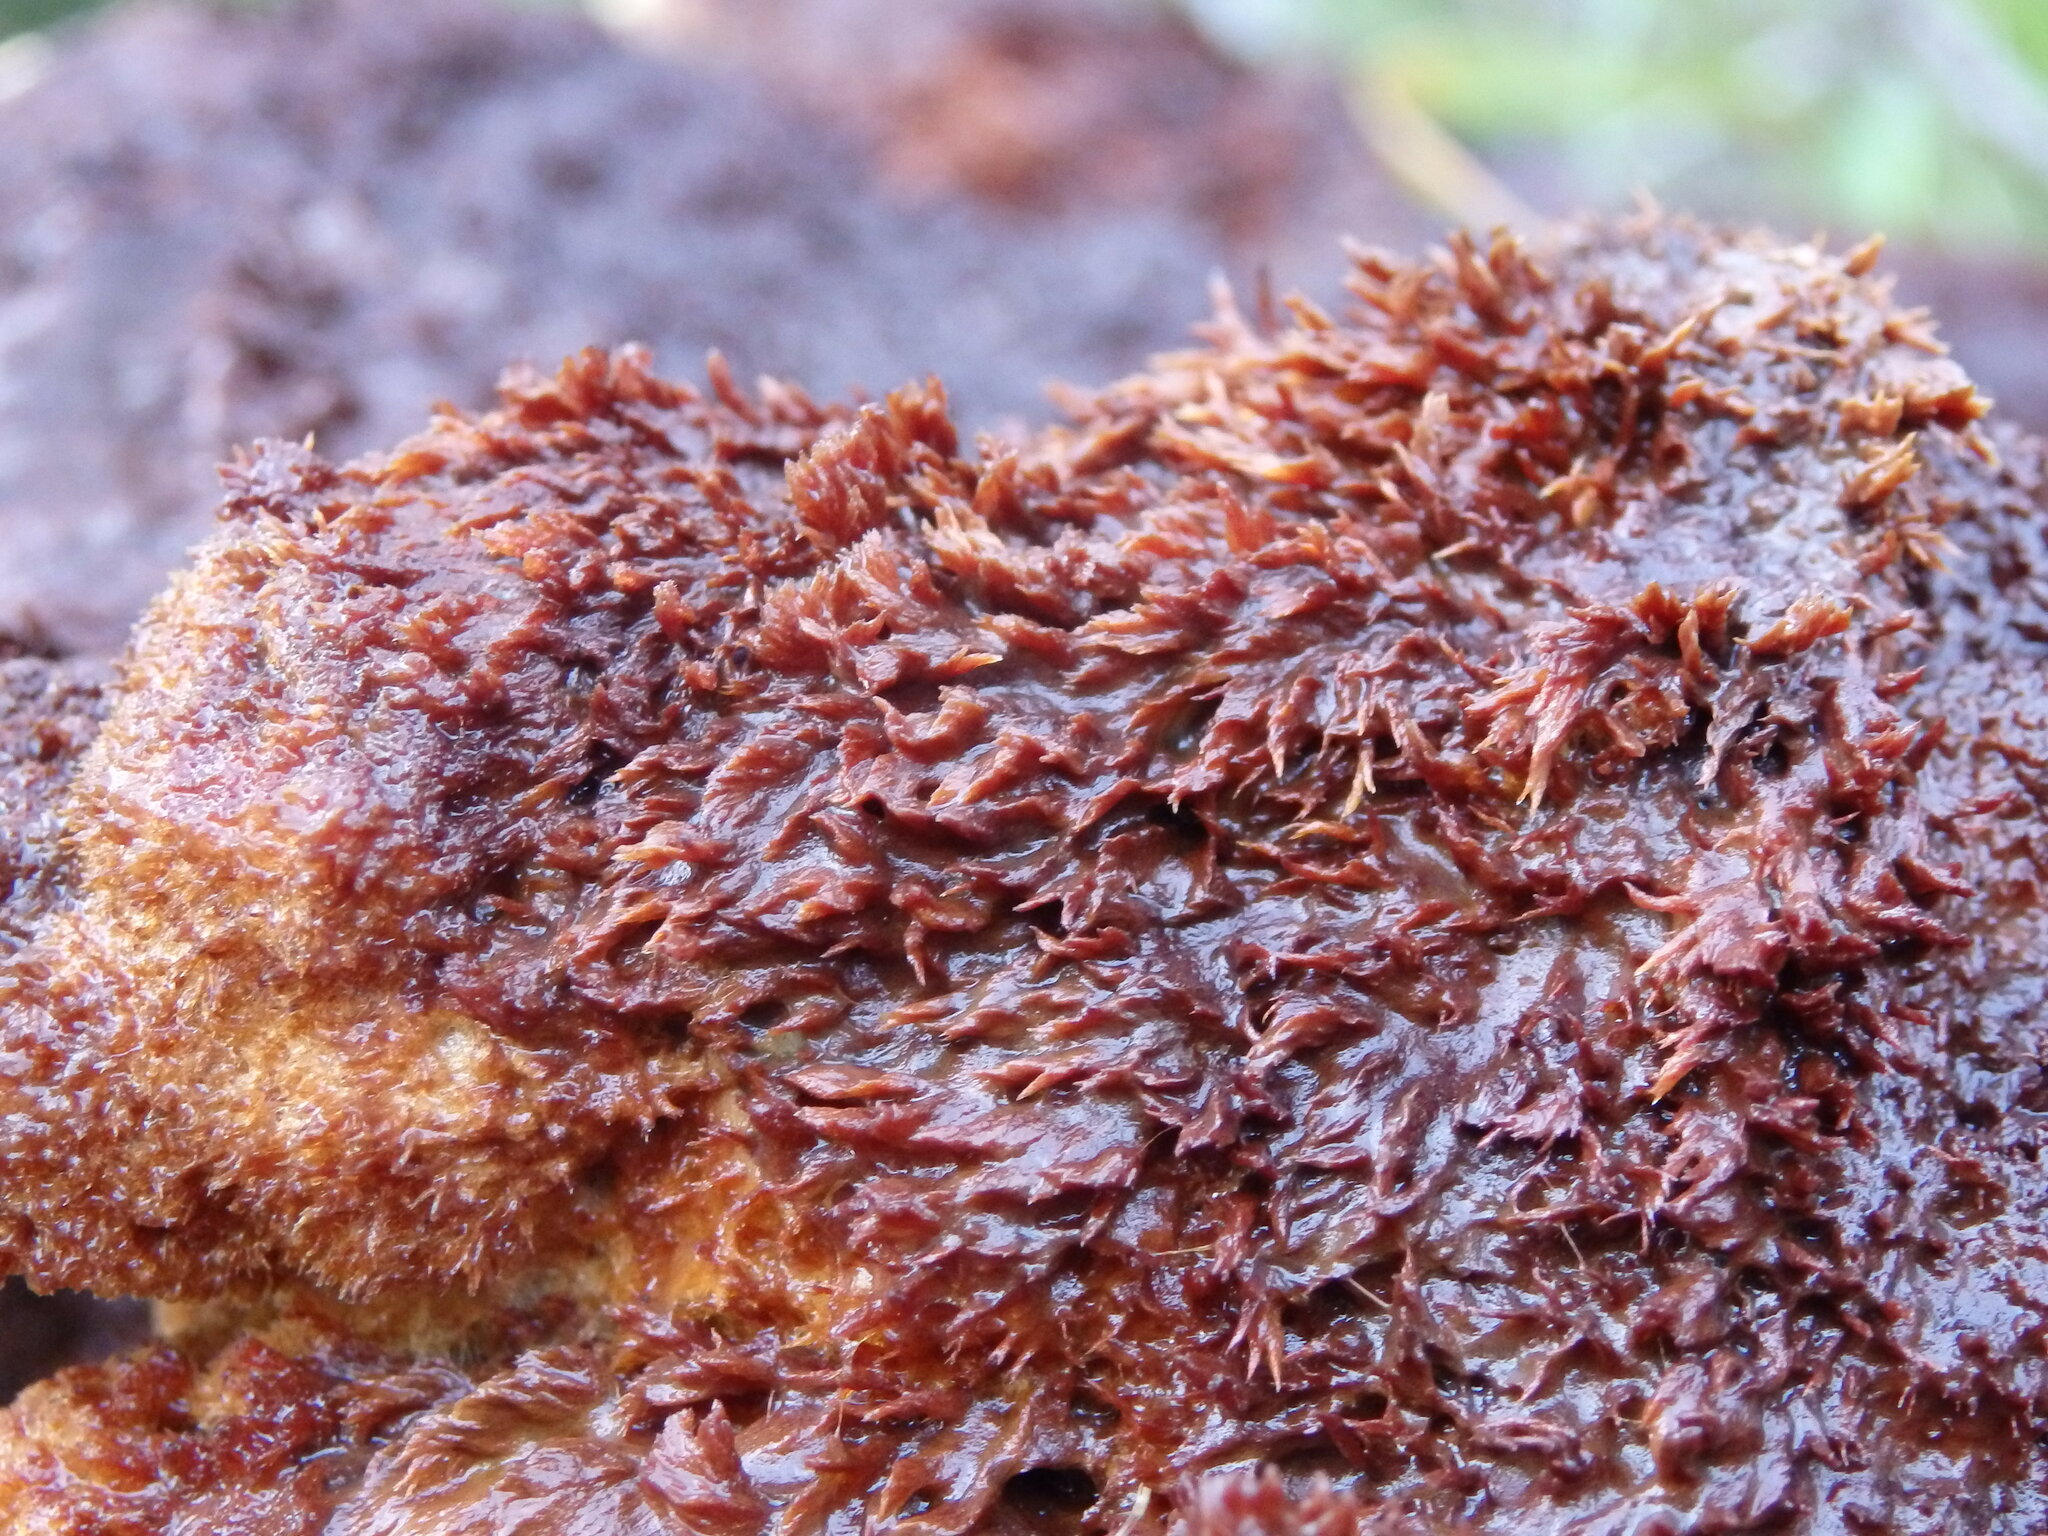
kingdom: Fungi
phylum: Basidiomycota
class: Agaricomycetes
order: Polyporales
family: Laetiporaceae
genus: Phaeolus
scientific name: Phaeolus schweinitzii
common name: Dyer's mazegill
